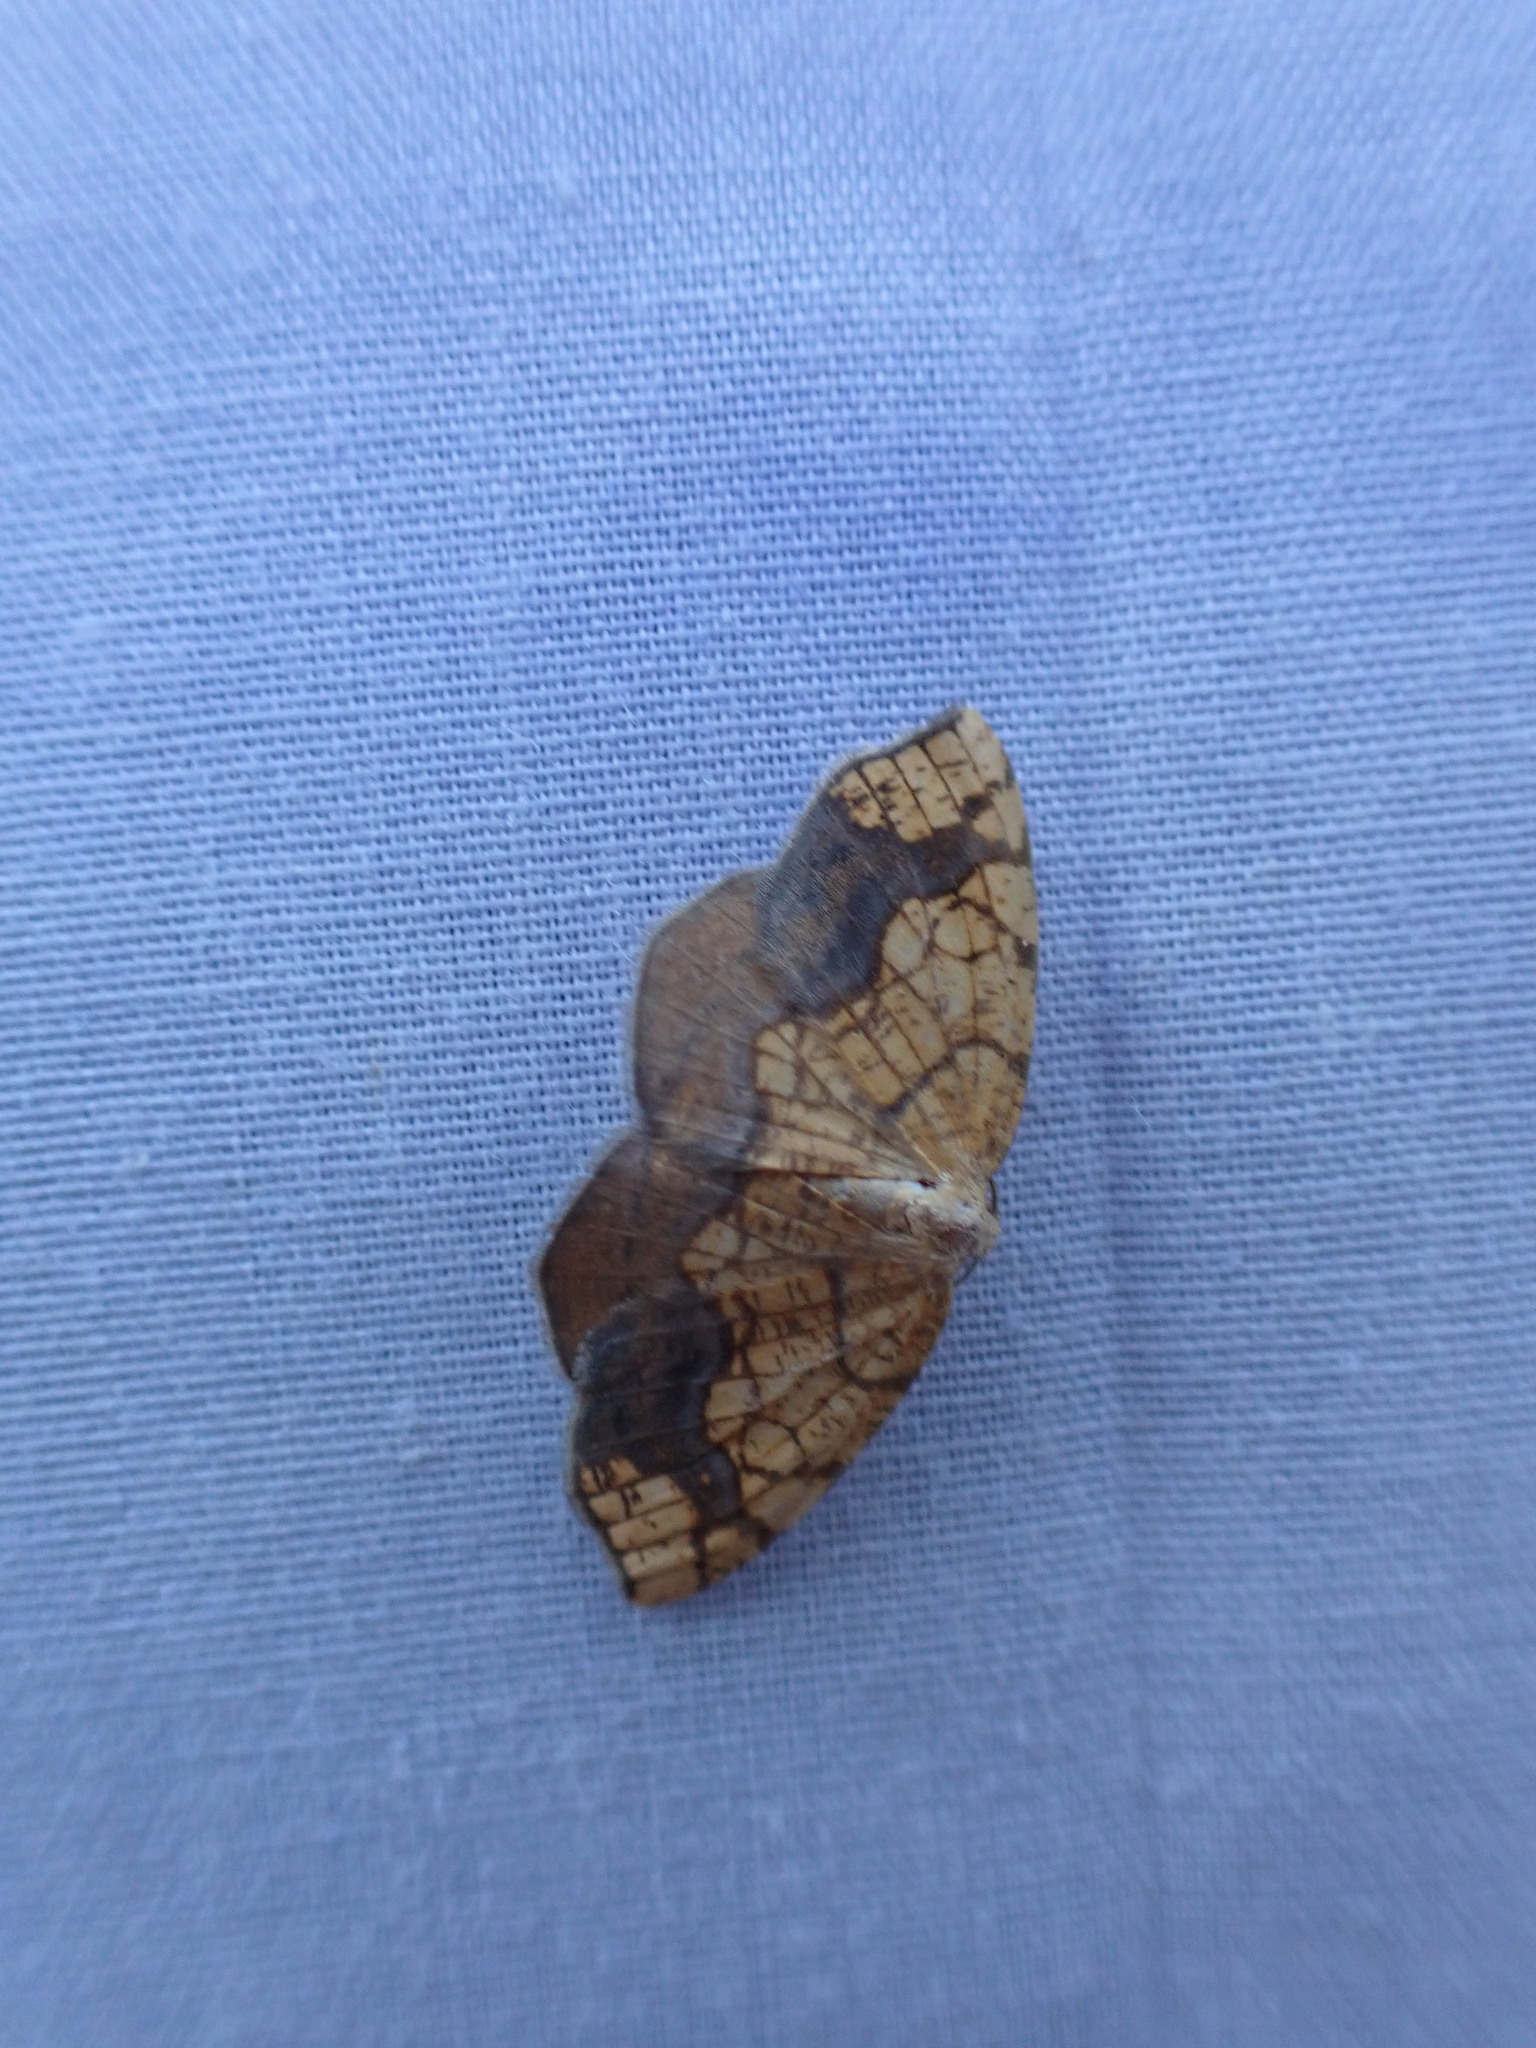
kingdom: Animalia
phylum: Arthropoda
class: Insecta
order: Lepidoptera
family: Geometridae
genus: Nematocampa
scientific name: Nematocampa resistaria
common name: Horned spanworm moth
